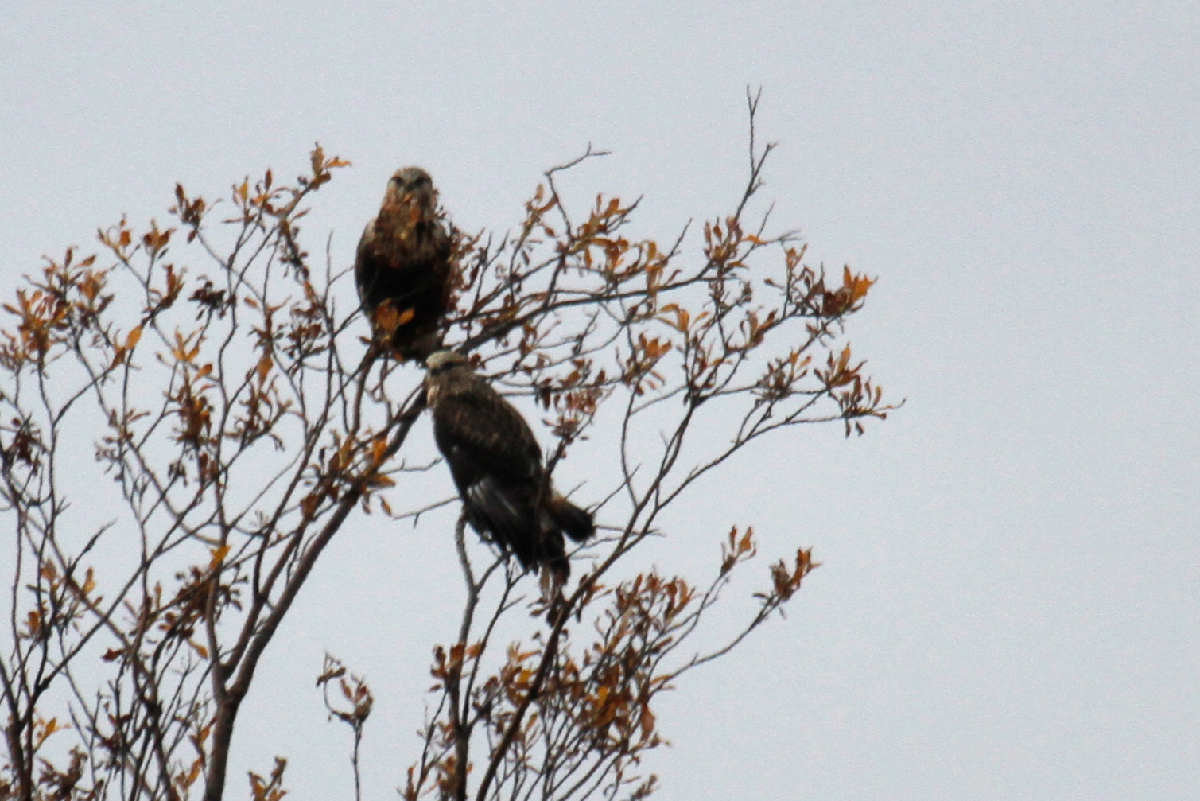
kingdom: Animalia
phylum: Chordata
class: Aves
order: Accipitriformes
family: Accipitridae
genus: Buteo
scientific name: Buteo lagopus
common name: Rough-legged buzzard
